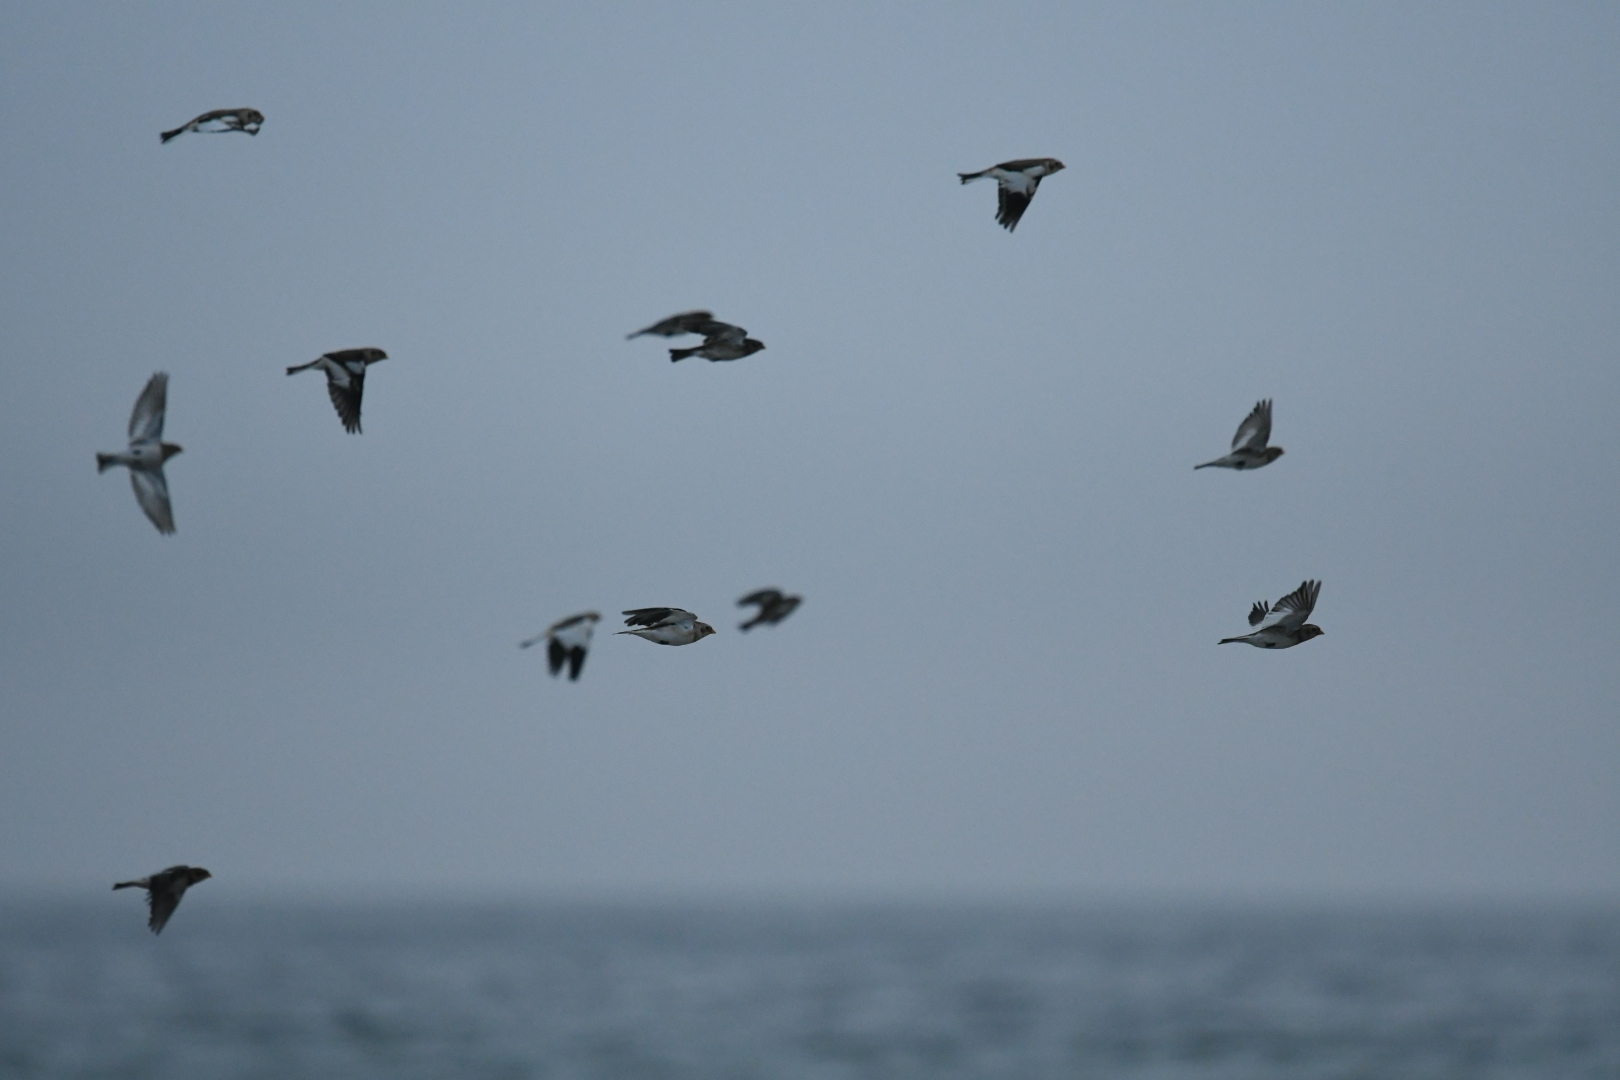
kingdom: Animalia
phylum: Chordata
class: Aves
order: Passeriformes
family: Calcariidae
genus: Plectrophenax
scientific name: Plectrophenax nivalis
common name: Snow bunting
